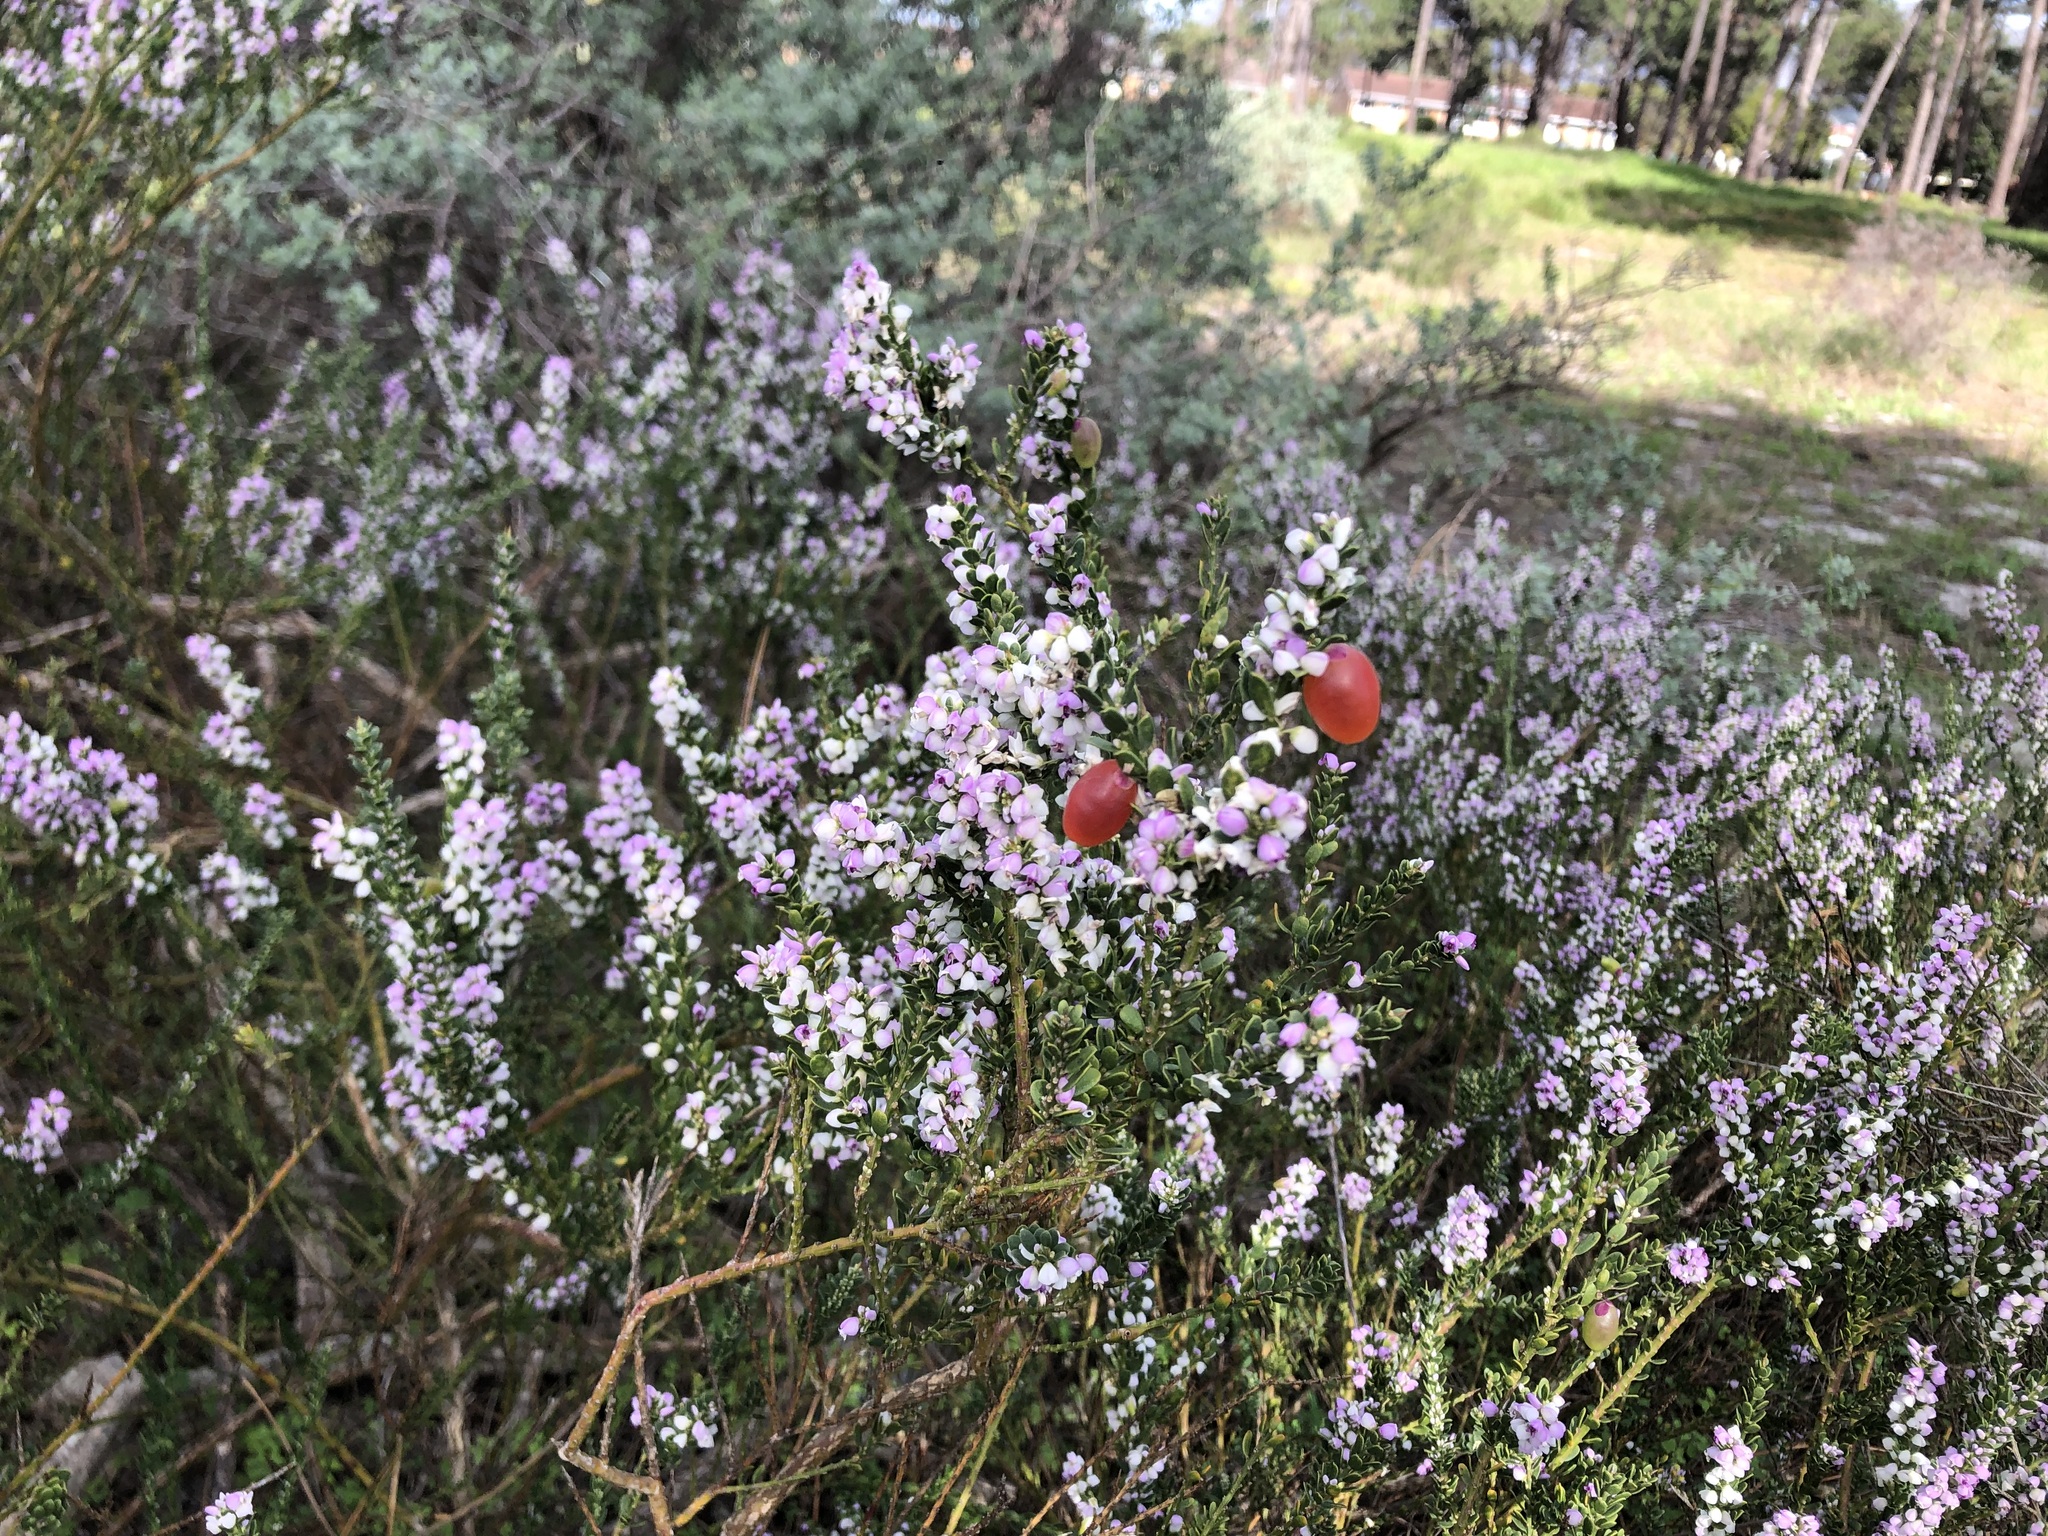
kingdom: Plantae
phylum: Tracheophyta
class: Magnoliopsida
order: Fabales
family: Polygalaceae
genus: Muraltia
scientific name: Muraltia spinosa
